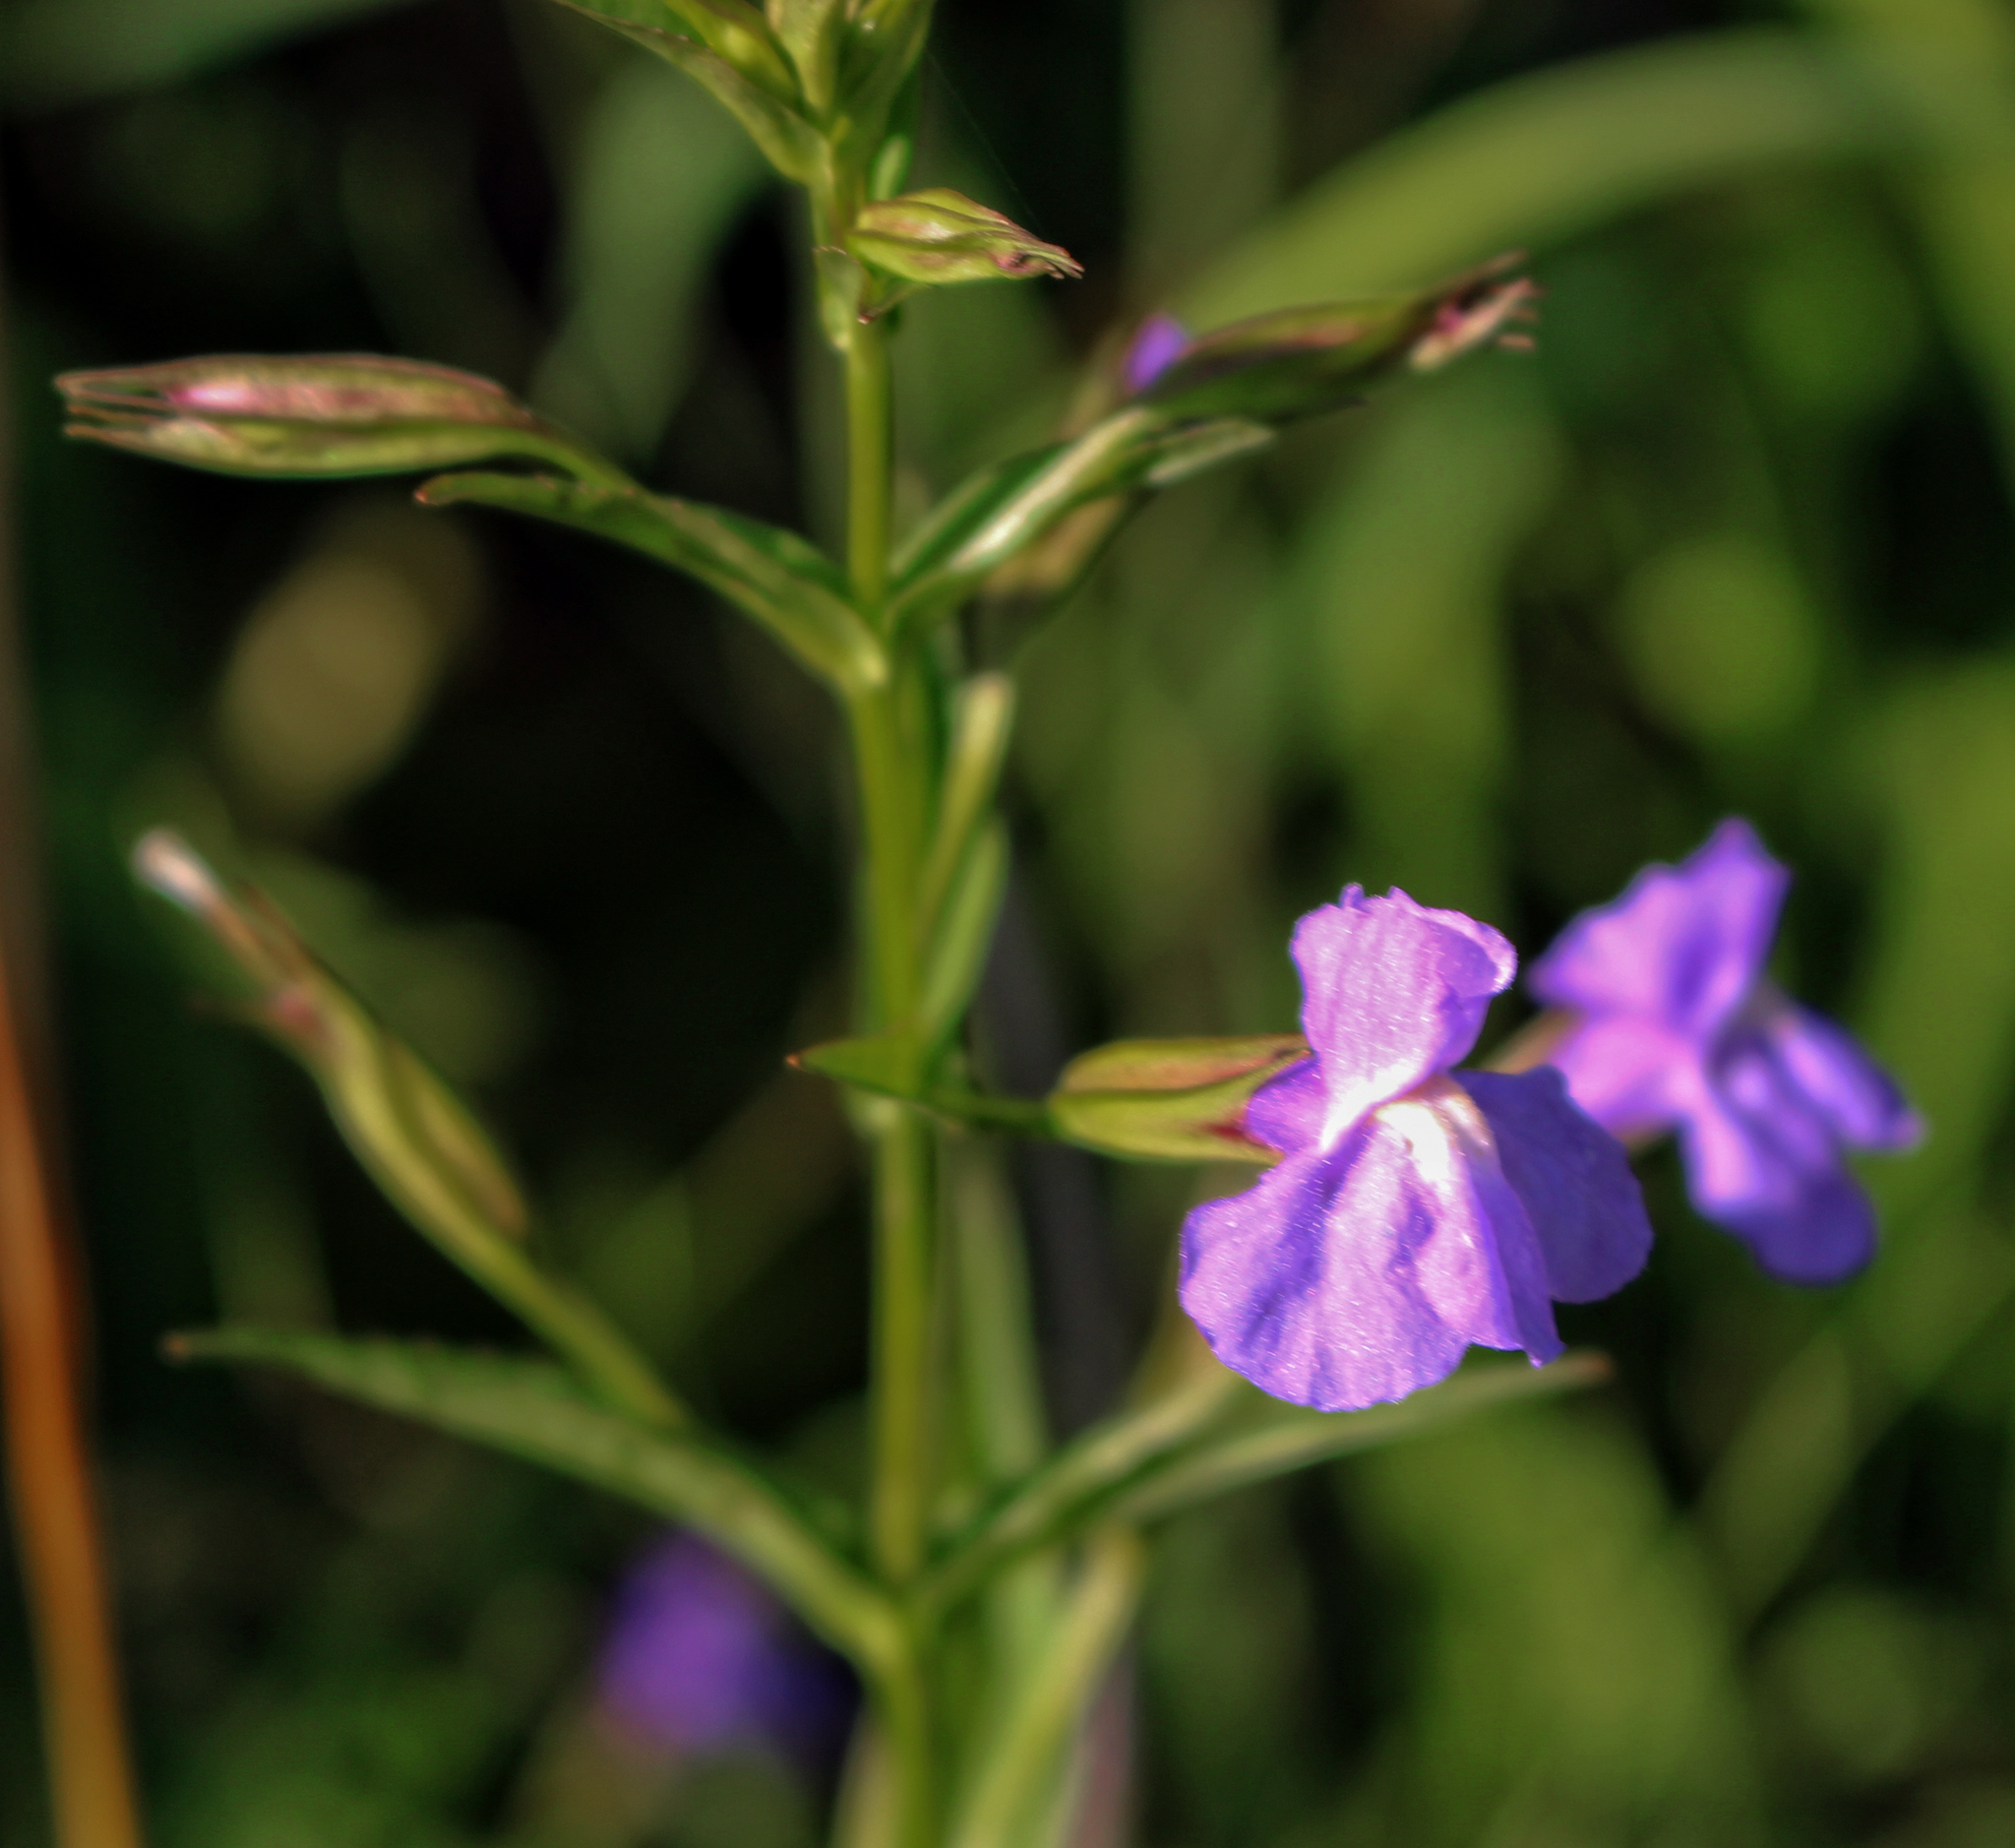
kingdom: Plantae
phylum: Tracheophyta
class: Magnoliopsida
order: Lamiales
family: Phrymaceae
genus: Mimulus
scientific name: Mimulus ringens
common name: Allegheny monkeyflower
